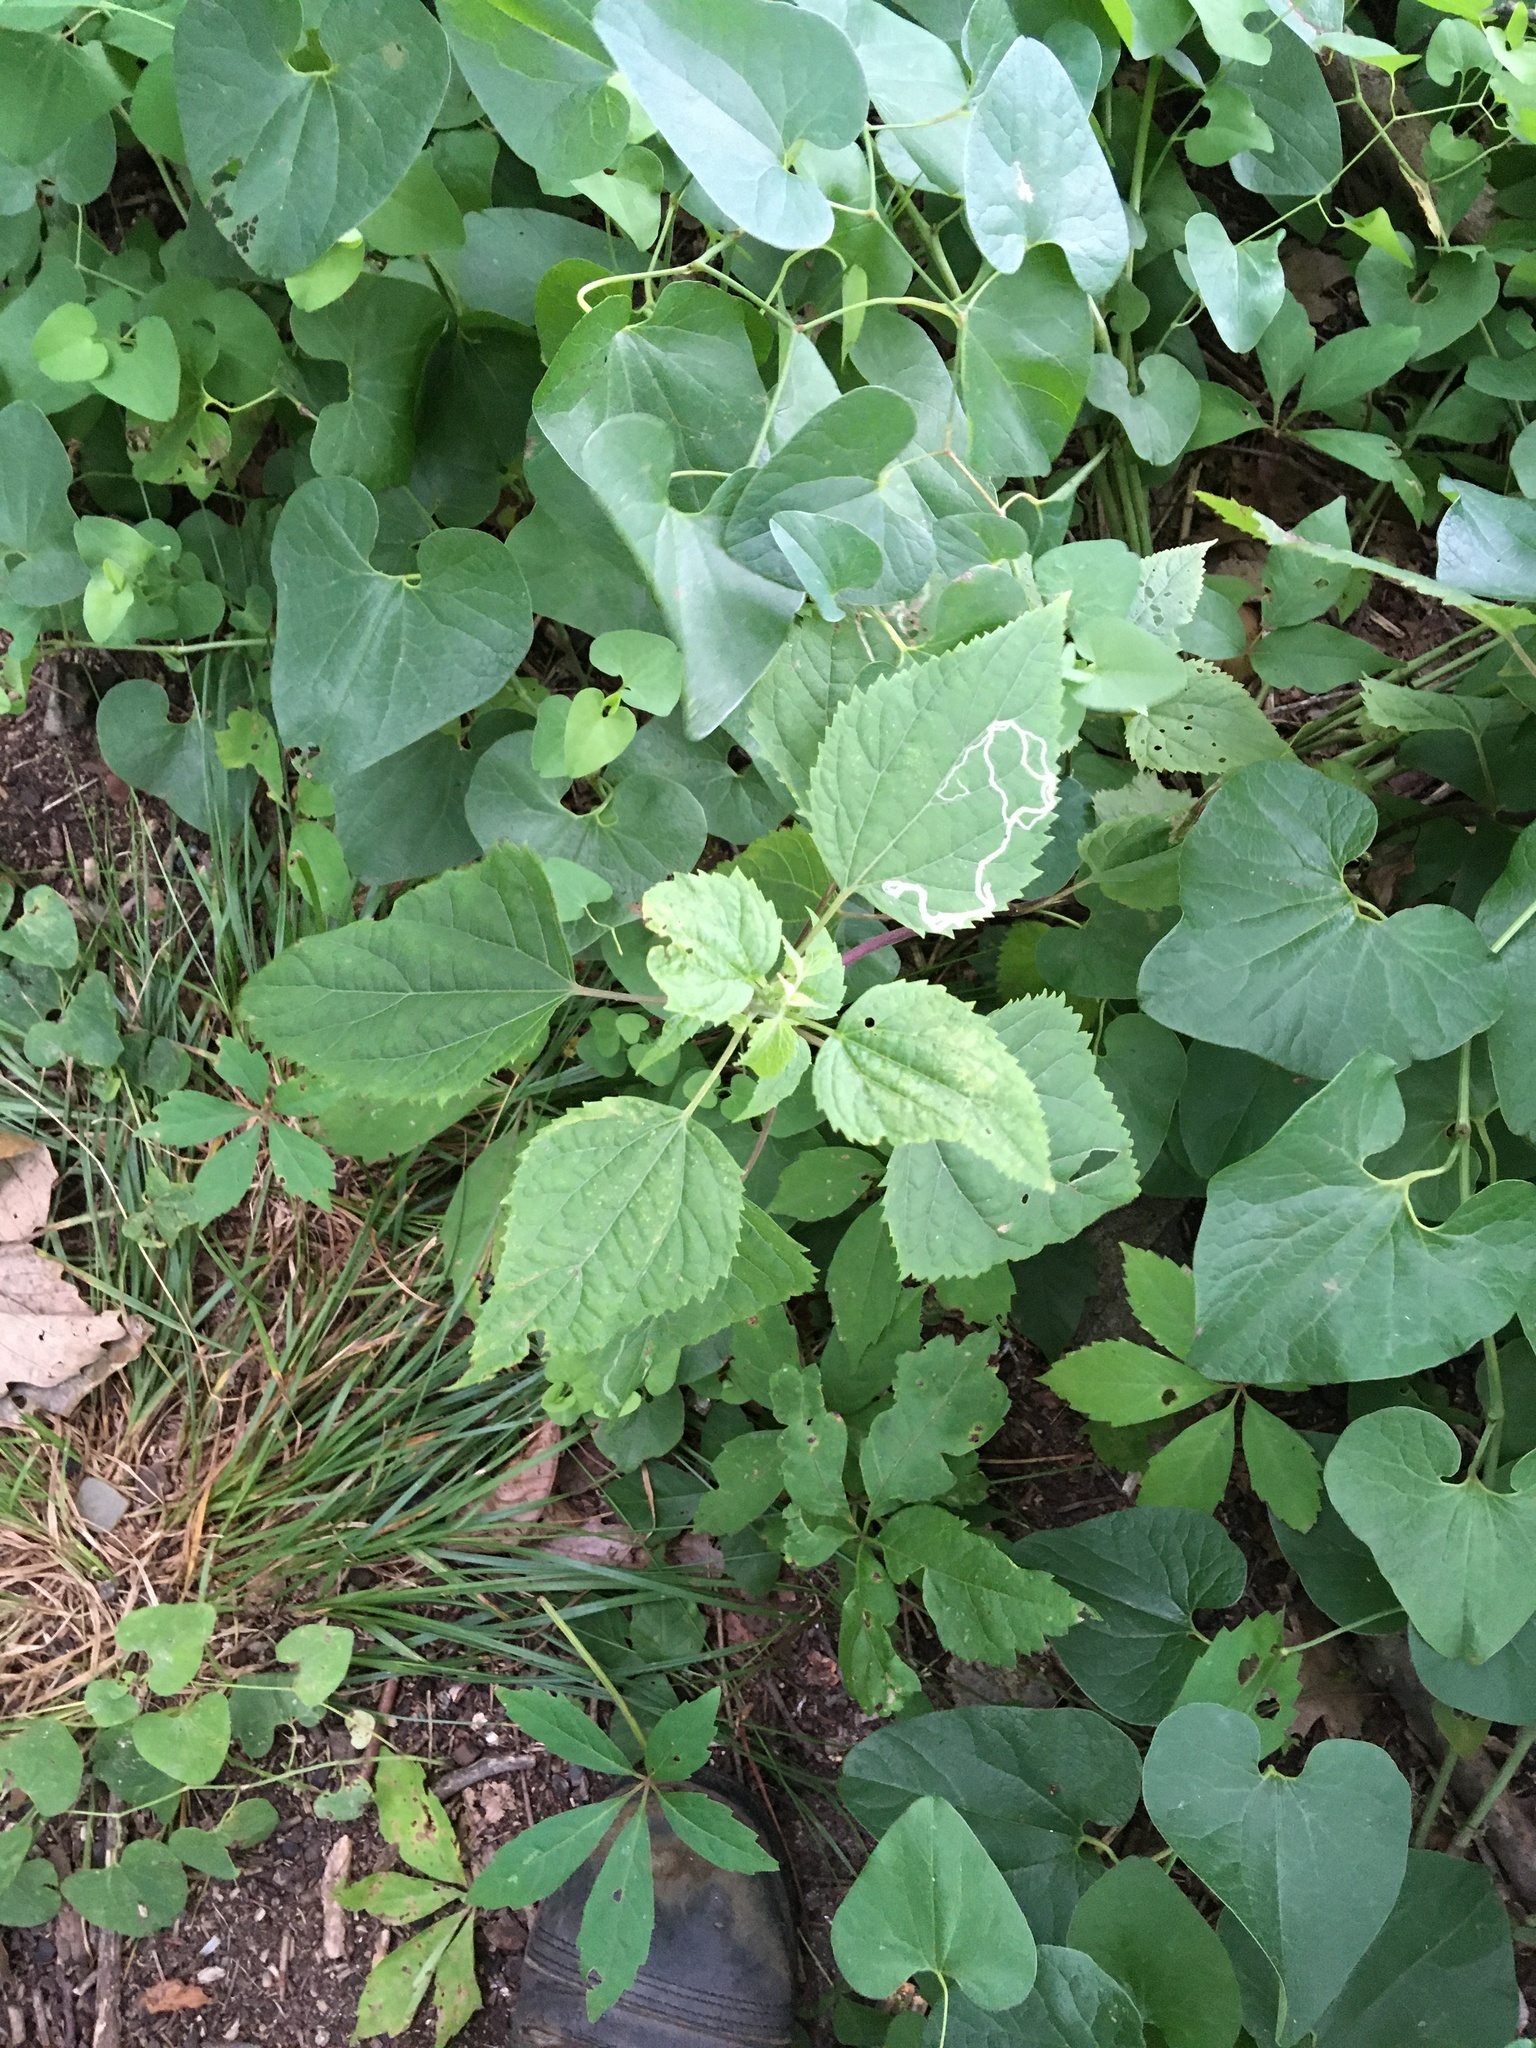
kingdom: Plantae
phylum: Tracheophyta
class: Magnoliopsida
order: Asterales
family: Asteraceae
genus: Ageratina
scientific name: Ageratina altissima
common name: White snakeroot
